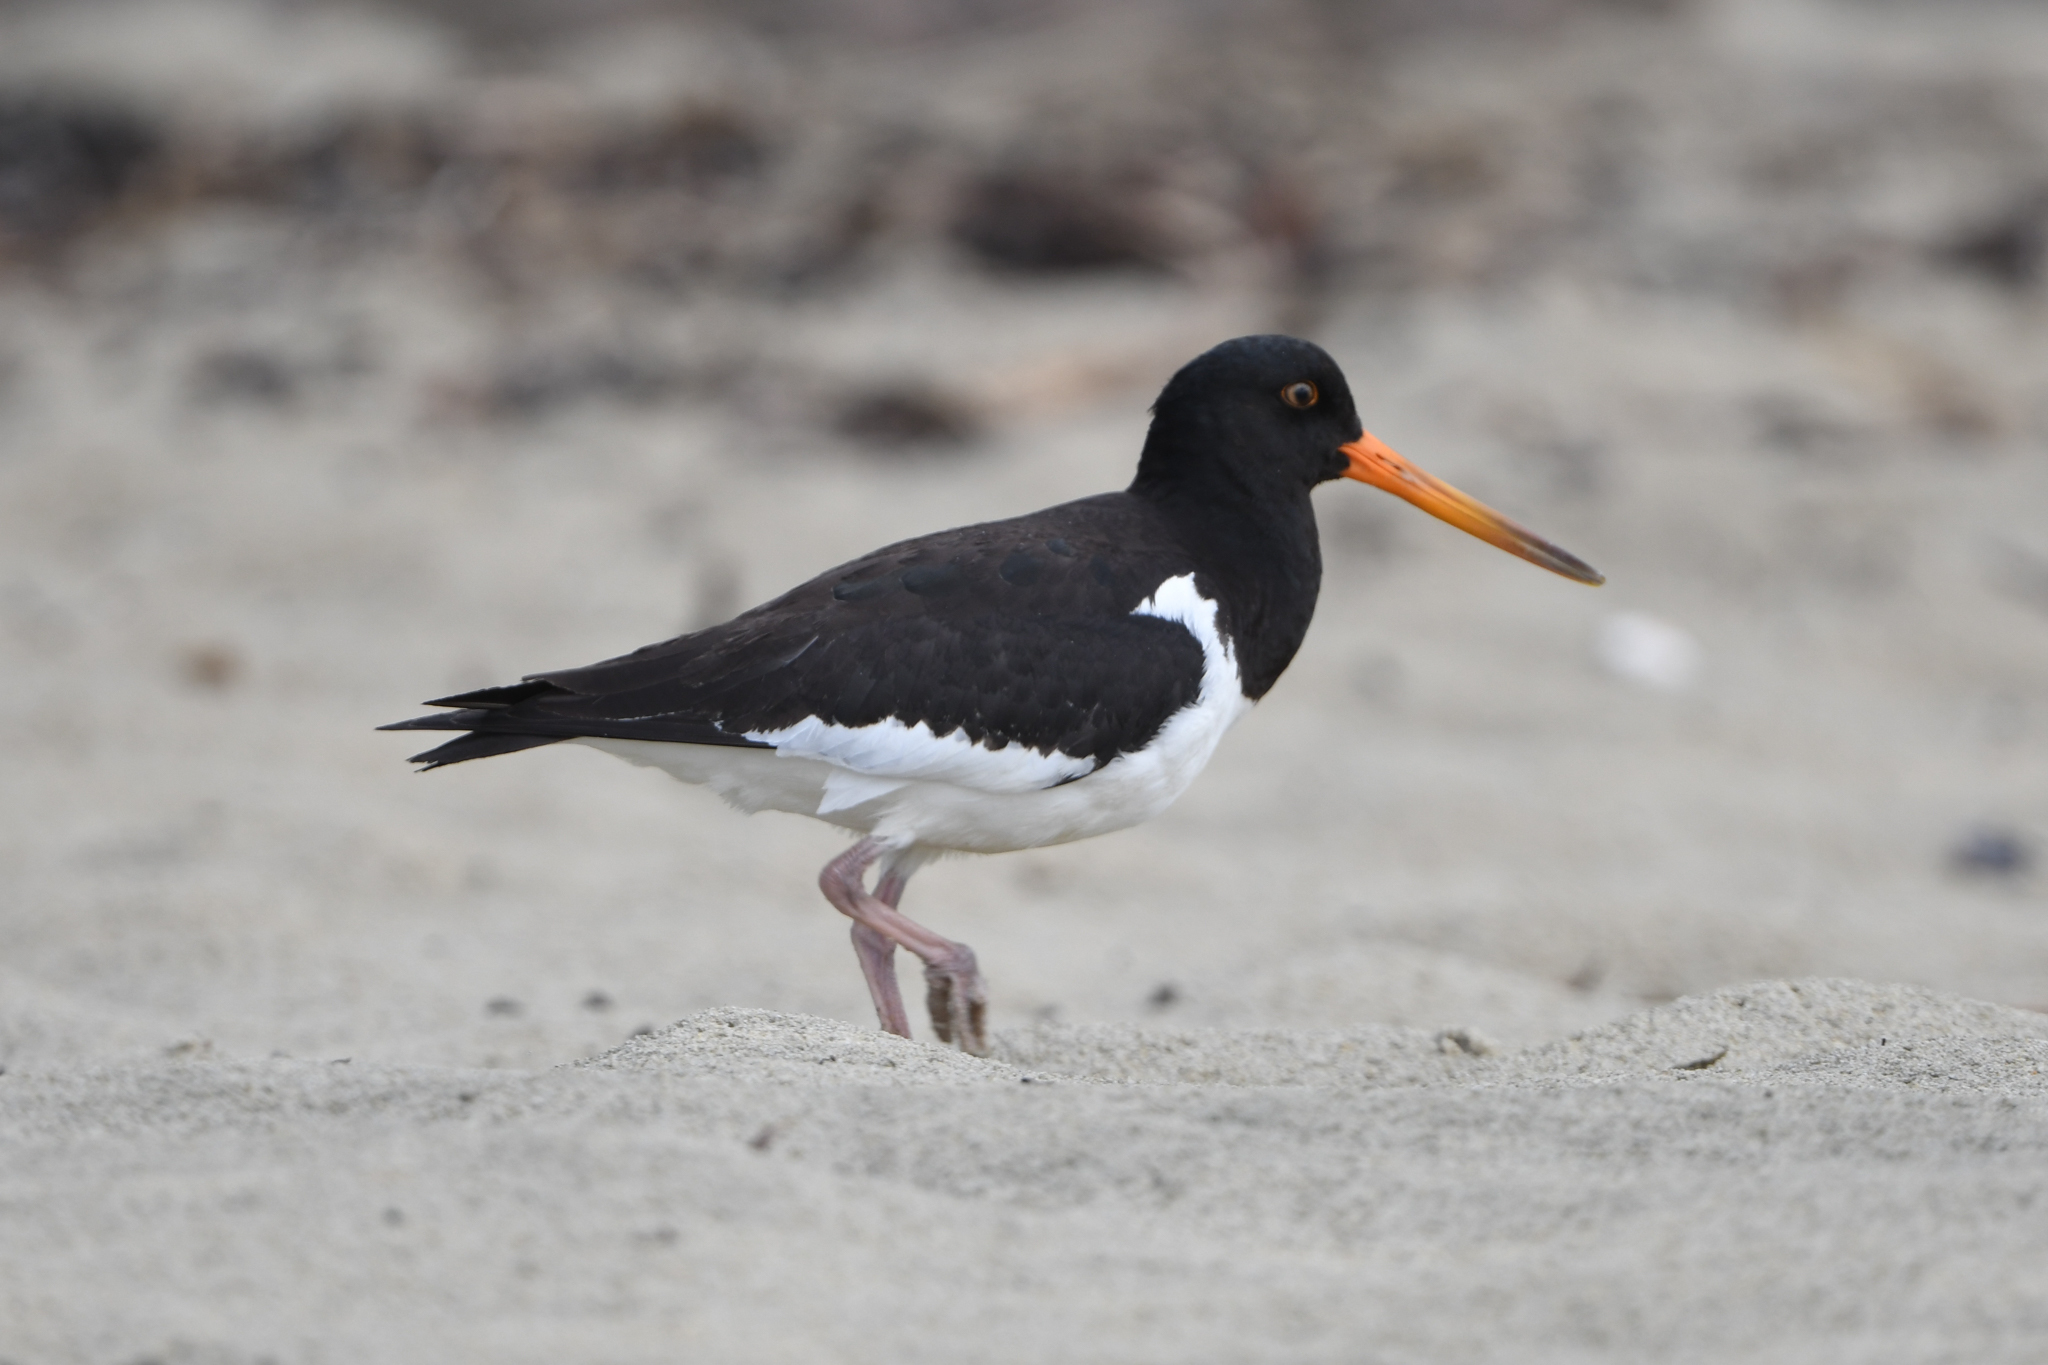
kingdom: Animalia
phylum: Chordata
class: Aves
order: Charadriiformes
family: Haematopodidae
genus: Haematopus
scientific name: Haematopus finschi
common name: South island oystercatcher
